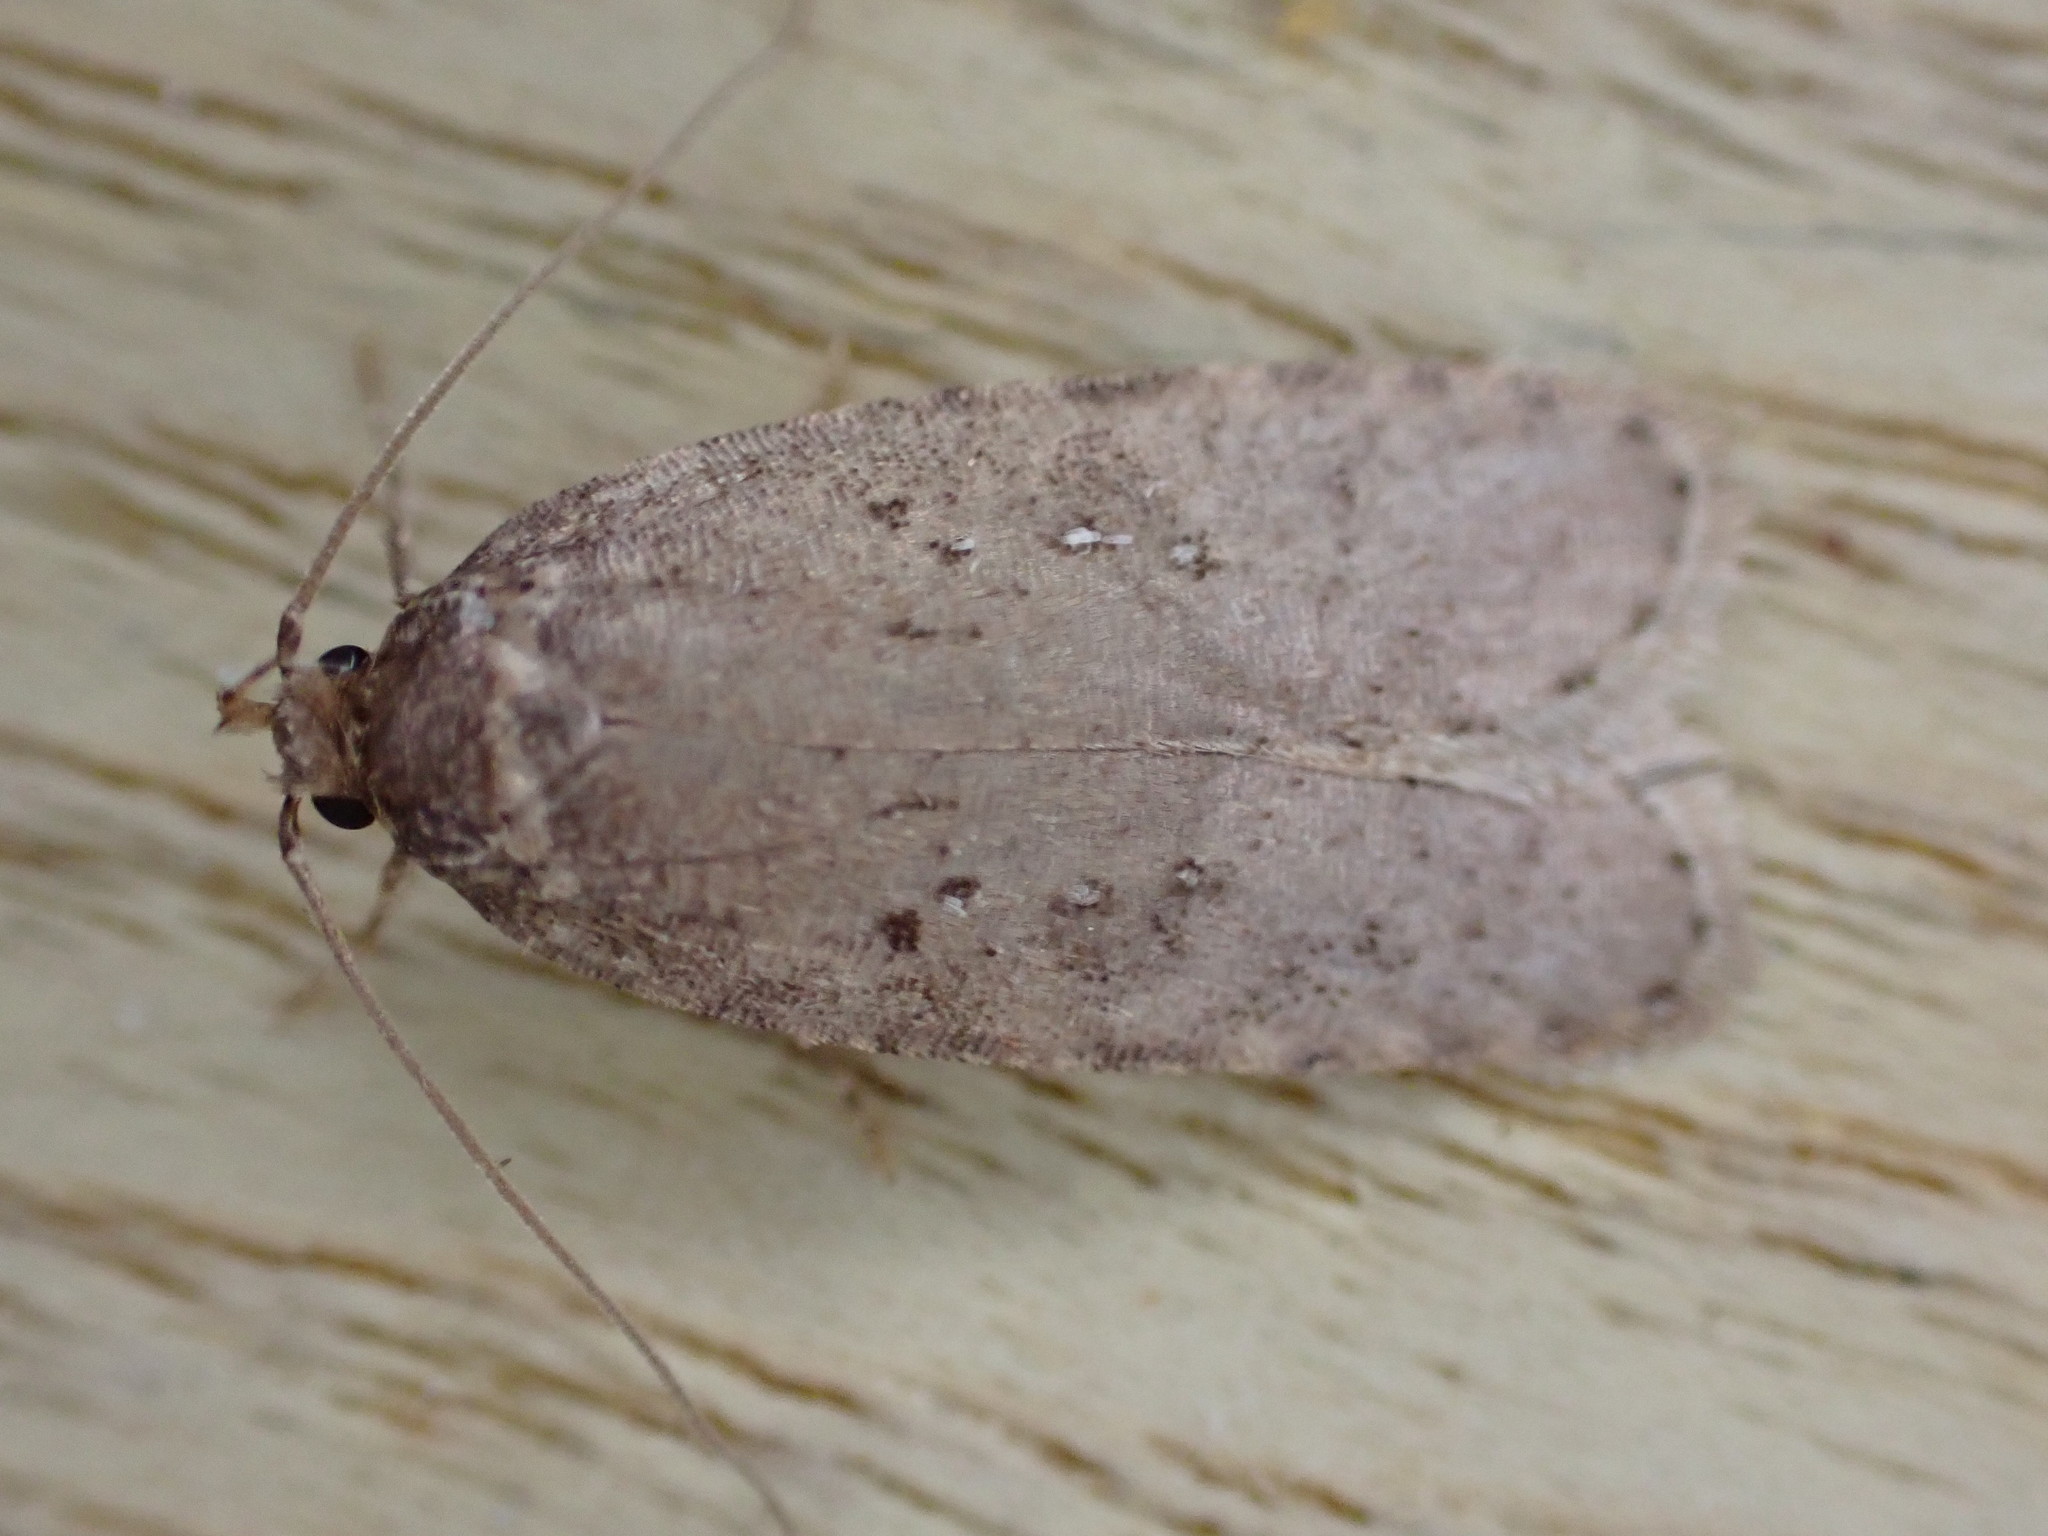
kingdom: Animalia
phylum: Arthropoda
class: Insecta
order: Lepidoptera
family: Depressariidae
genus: Agonopterix
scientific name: Agonopterix heracliana
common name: Common flat-body
